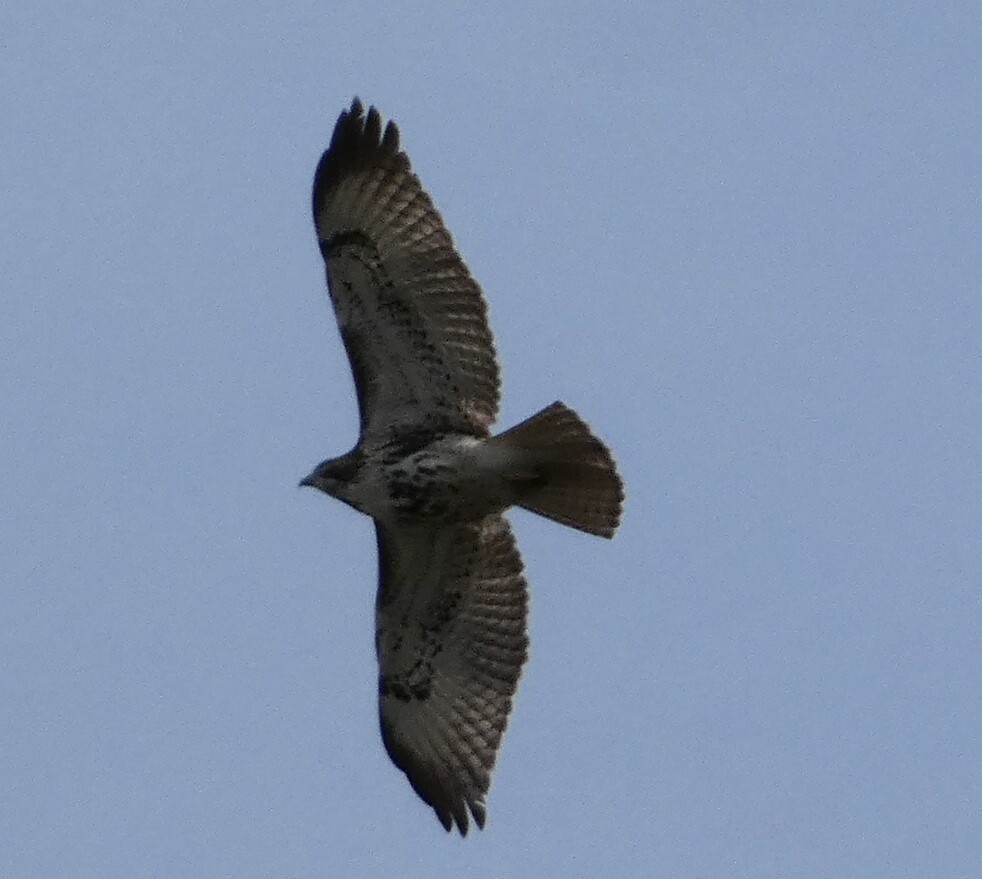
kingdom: Animalia
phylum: Chordata
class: Aves
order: Accipitriformes
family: Accipitridae
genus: Buteo
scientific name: Buteo jamaicensis
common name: Red-tailed hawk
